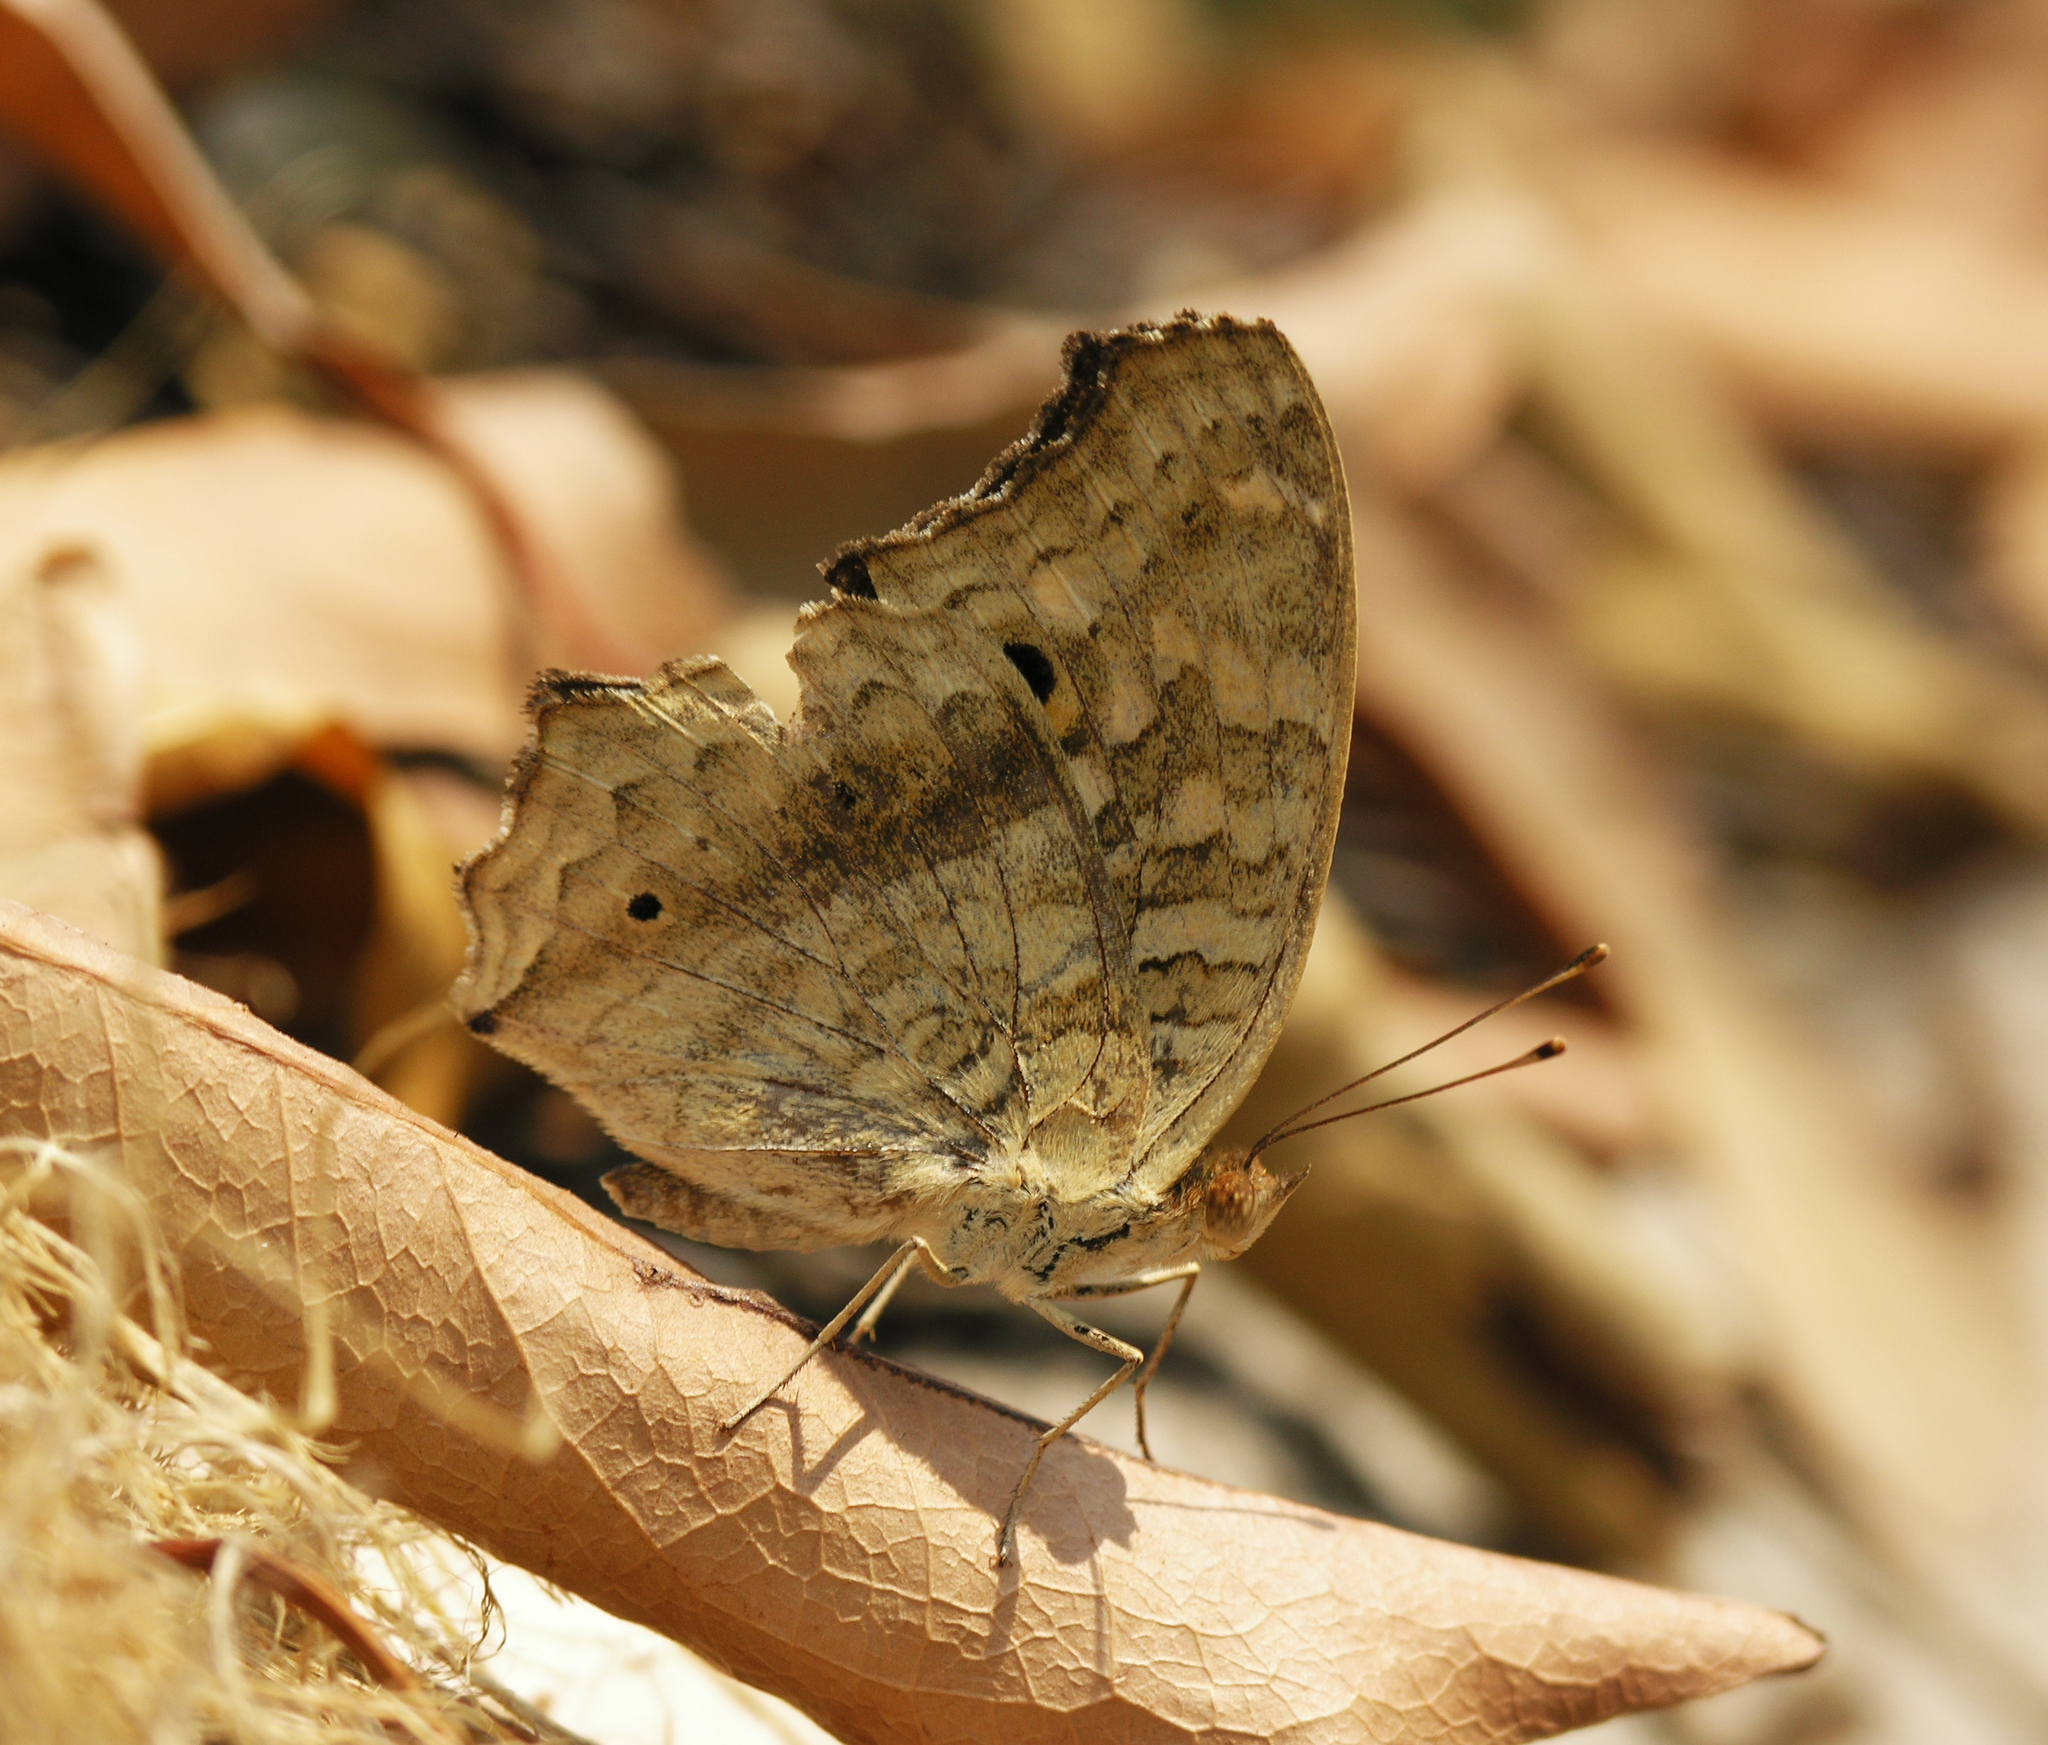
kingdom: Animalia
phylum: Arthropoda
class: Insecta
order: Lepidoptera
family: Nymphalidae
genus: Junonia
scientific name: Junonia lemonias
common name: Lemon pansy
